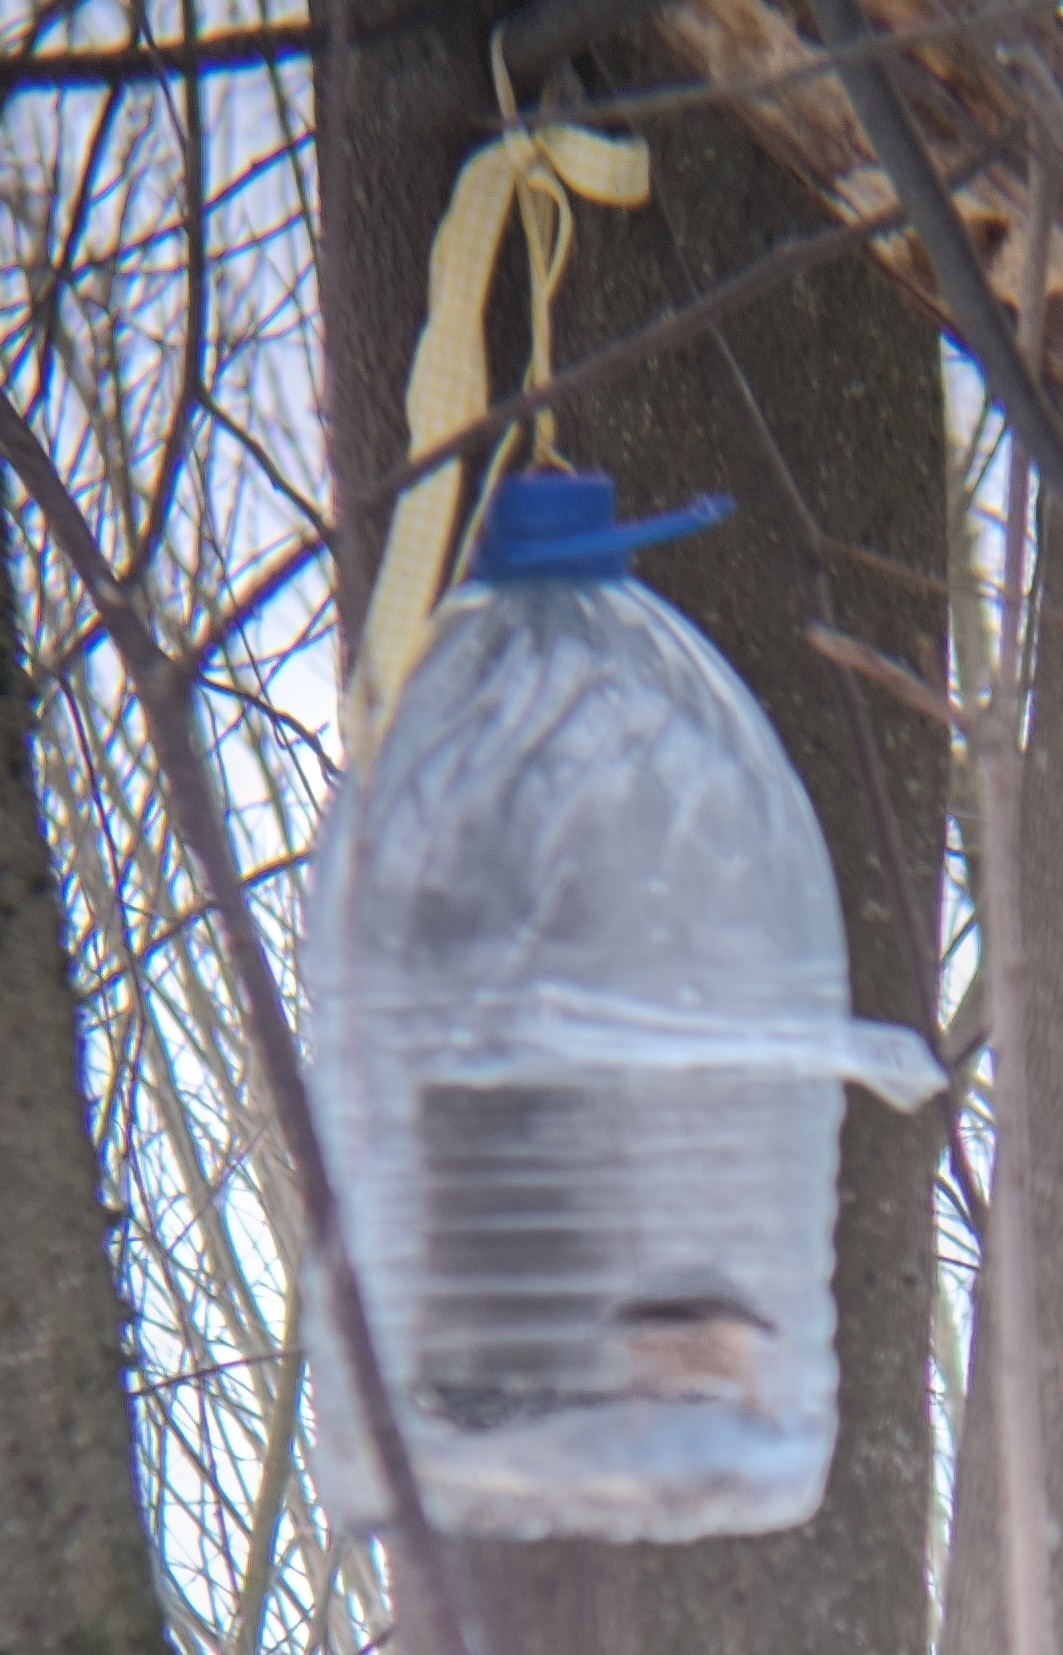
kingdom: Animalia
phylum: Chordata
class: Aves
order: Passeriformes
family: Sittidae
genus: Sitta
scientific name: Sitta europaea
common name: Eurasian nuthatch
